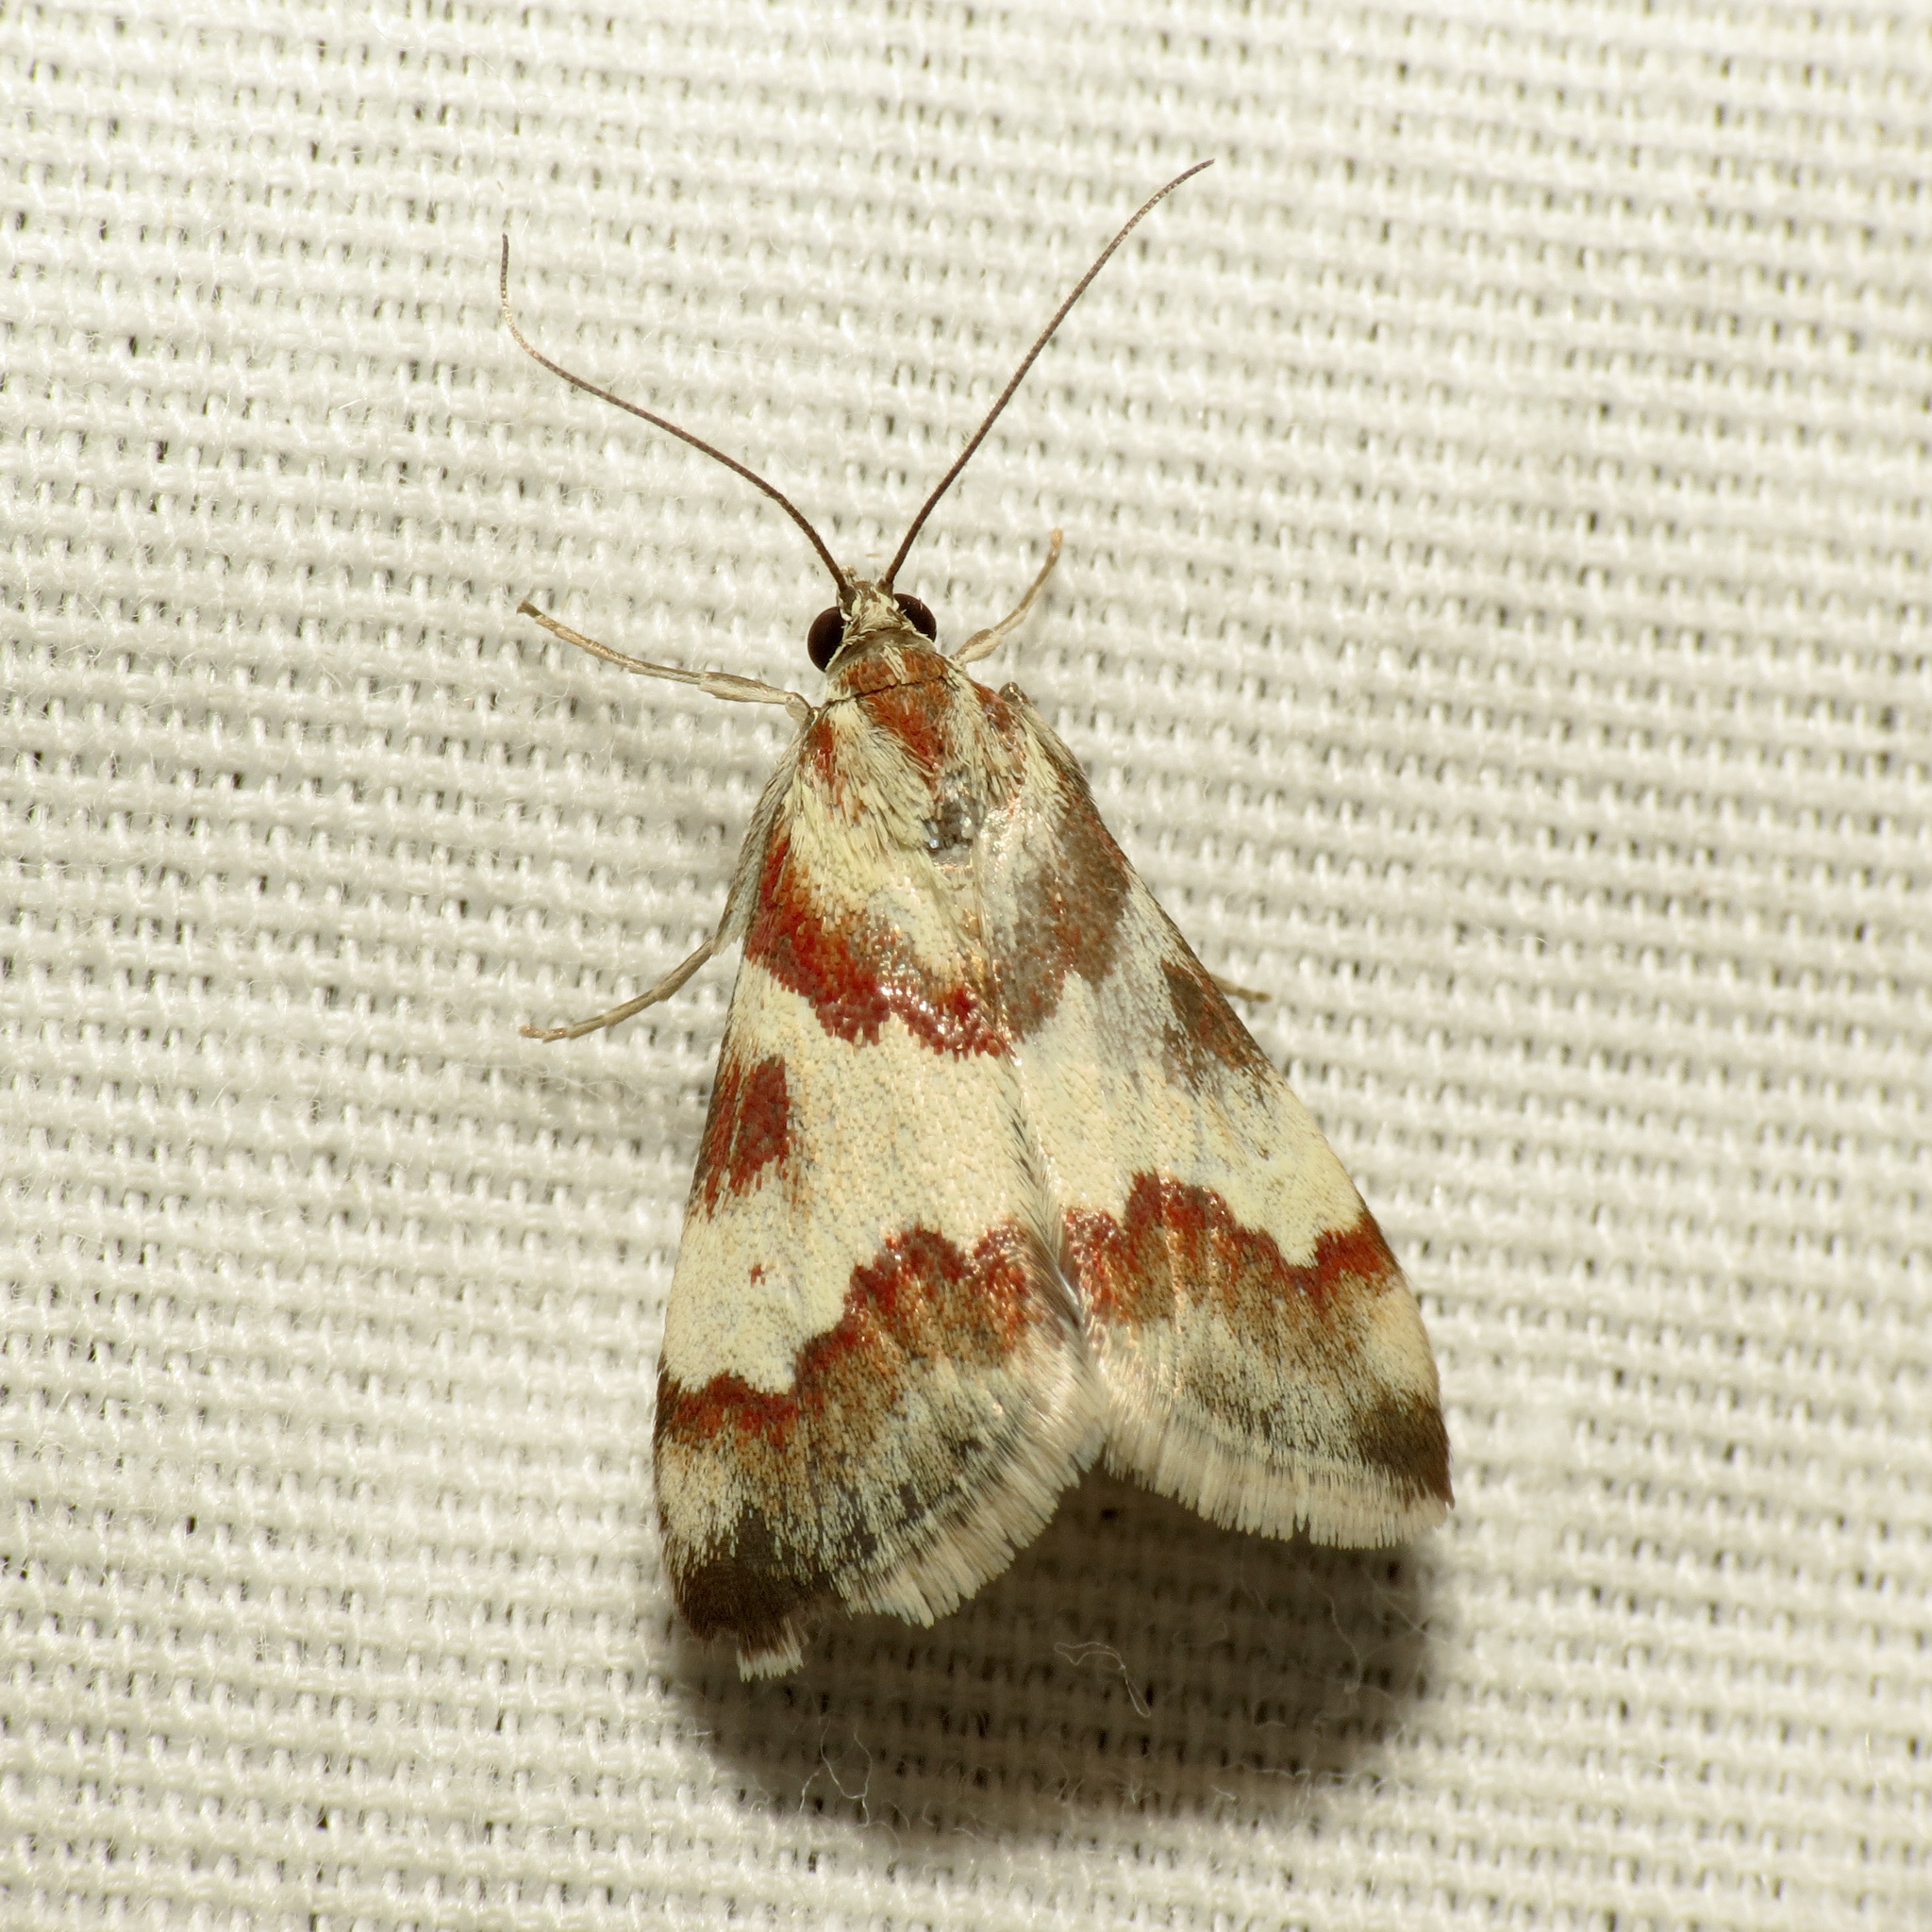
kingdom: Animalia
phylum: Arthropoda
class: Insecta
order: Lepidoptera
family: Crambidae
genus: Noctuelia
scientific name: Noctuelia Mimoschinia rufofascialis
